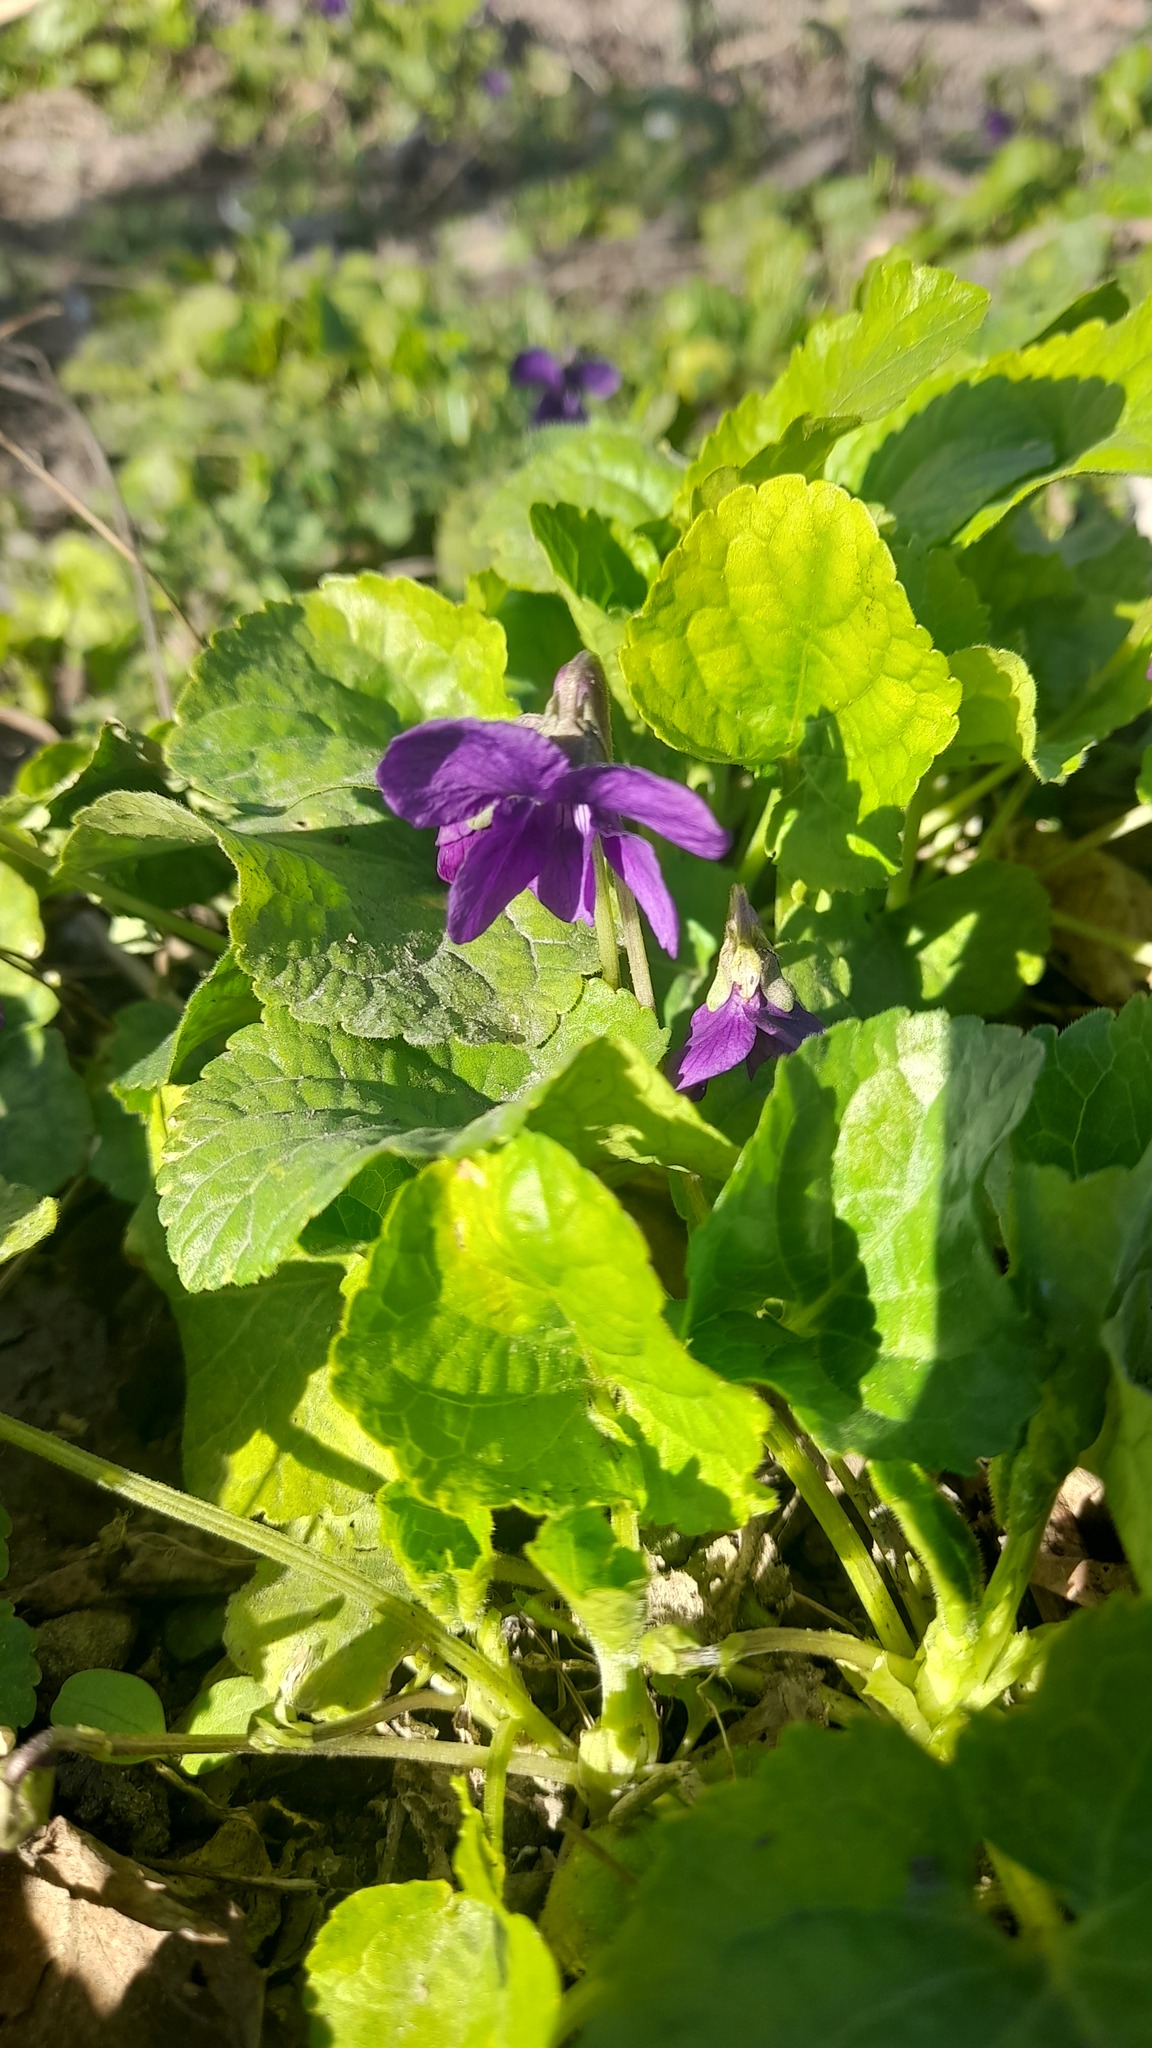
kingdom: Plantae
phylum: Tracheophyta
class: Magnoliopsida
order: Malpighiales
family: Violaceae
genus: Viola
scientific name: Viola odorata
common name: Sweet violet
